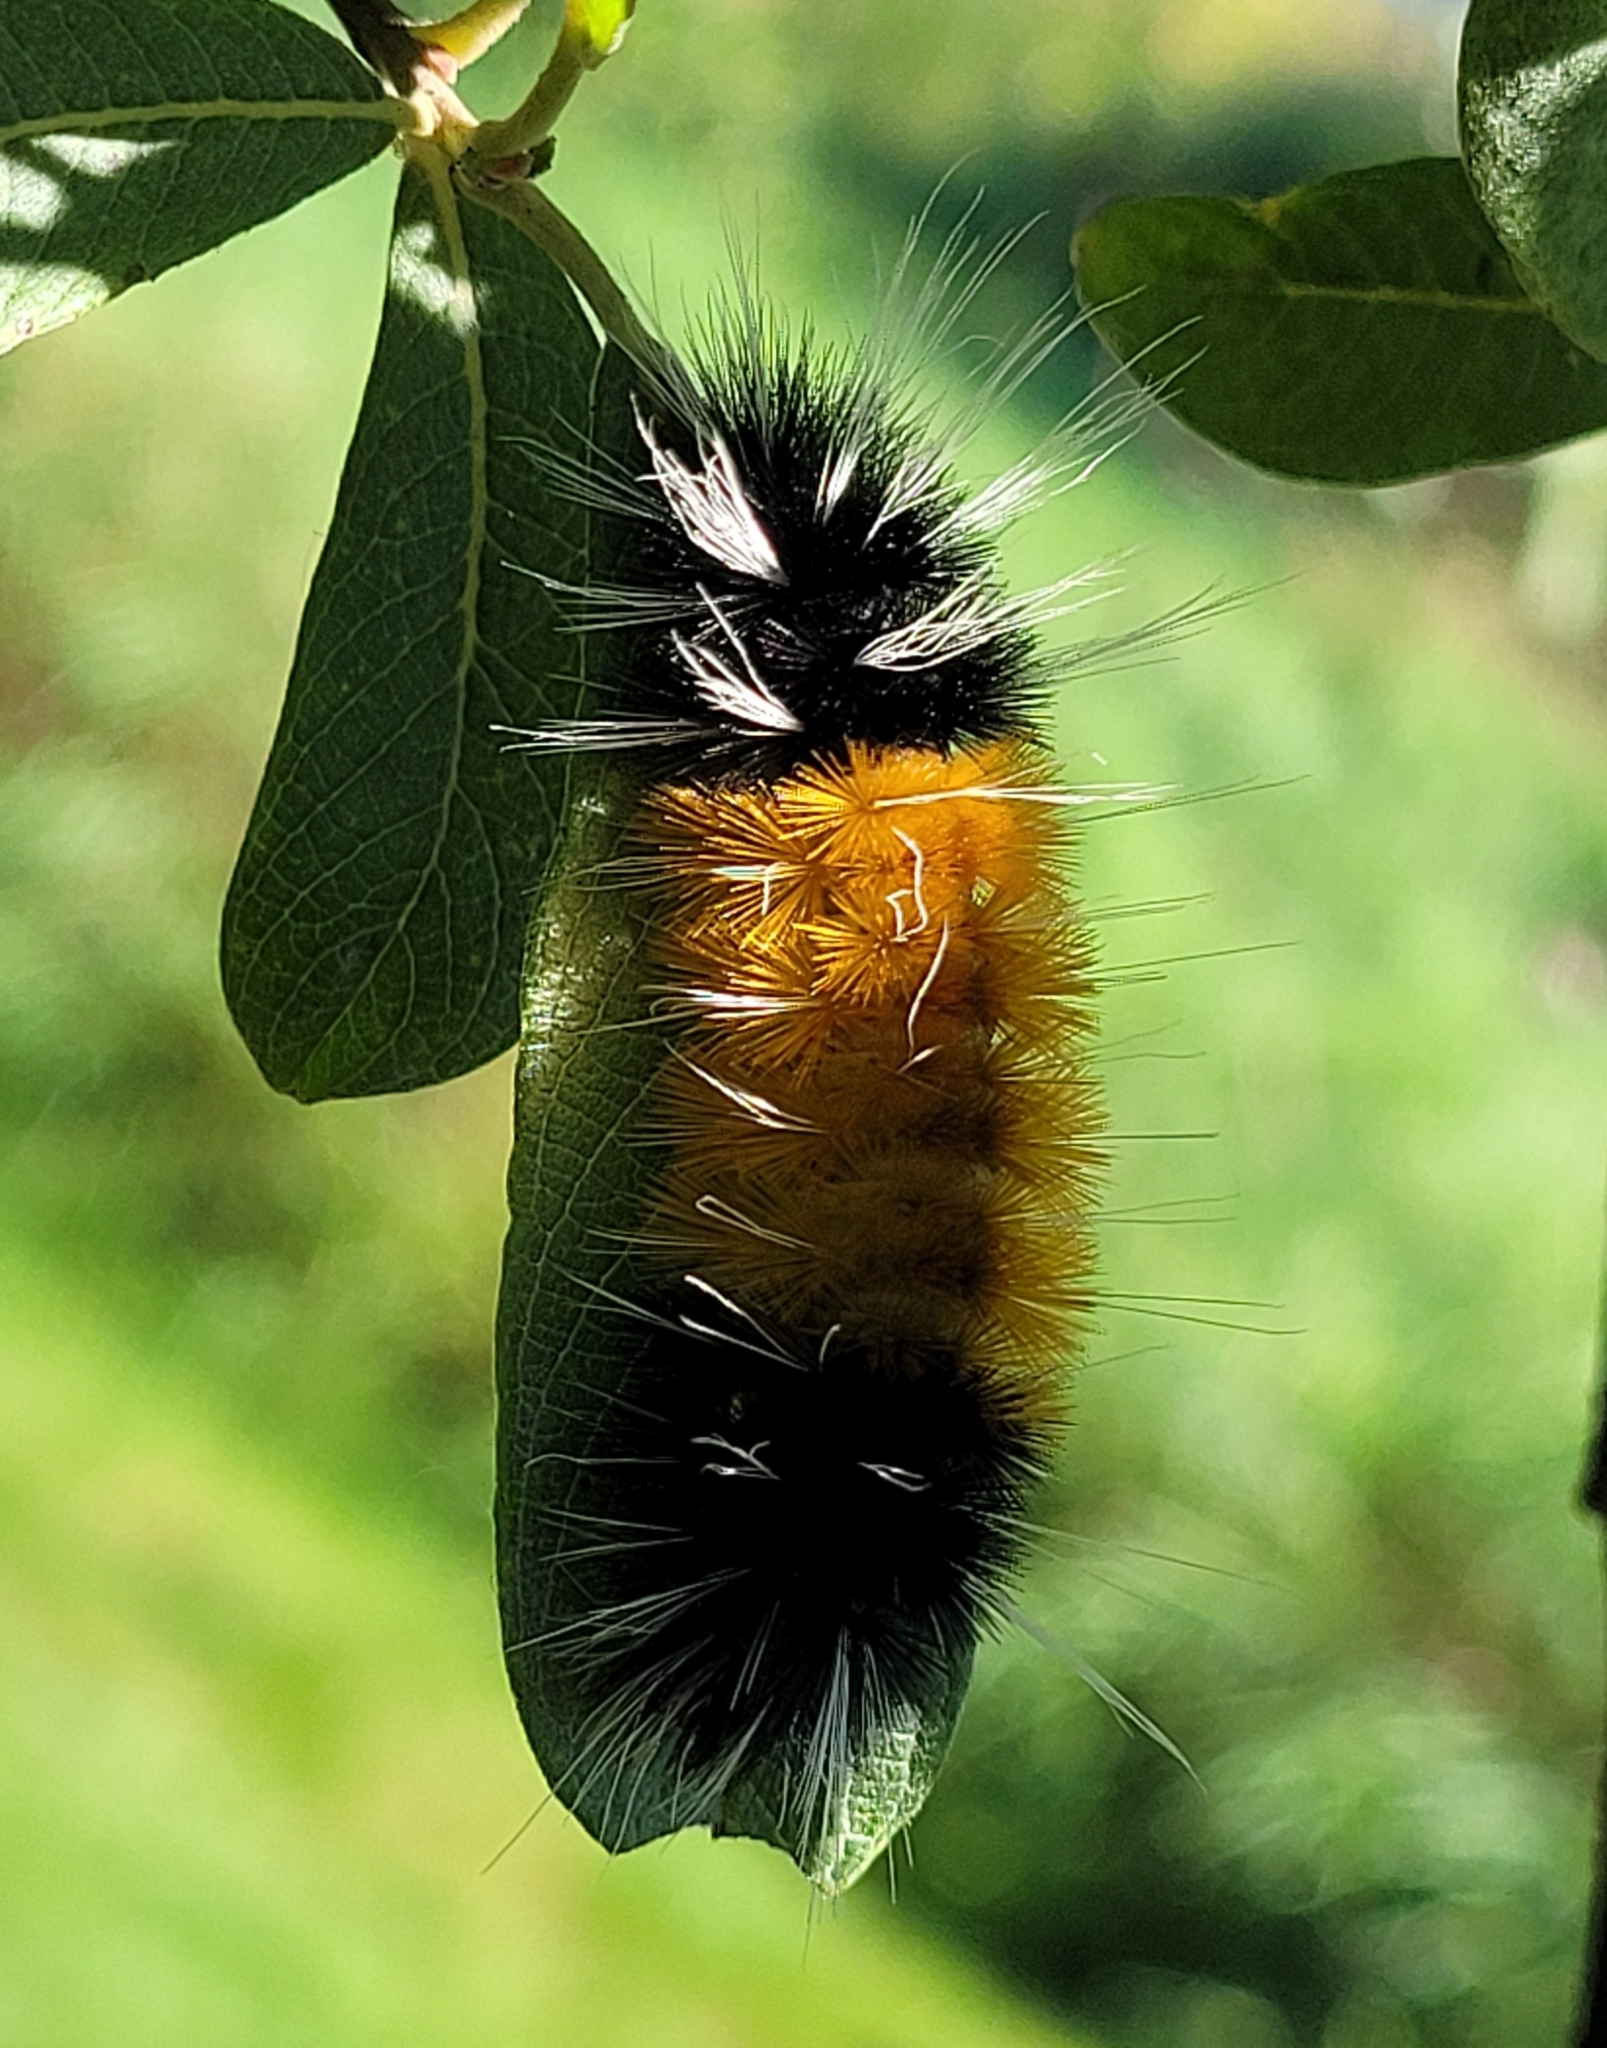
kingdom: Animalia
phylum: Arthropoda
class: Insecta
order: Lepidoptera
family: Erebidae
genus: Lophocampa
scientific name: Lophocampa maculata
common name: Spotted tussock moth
